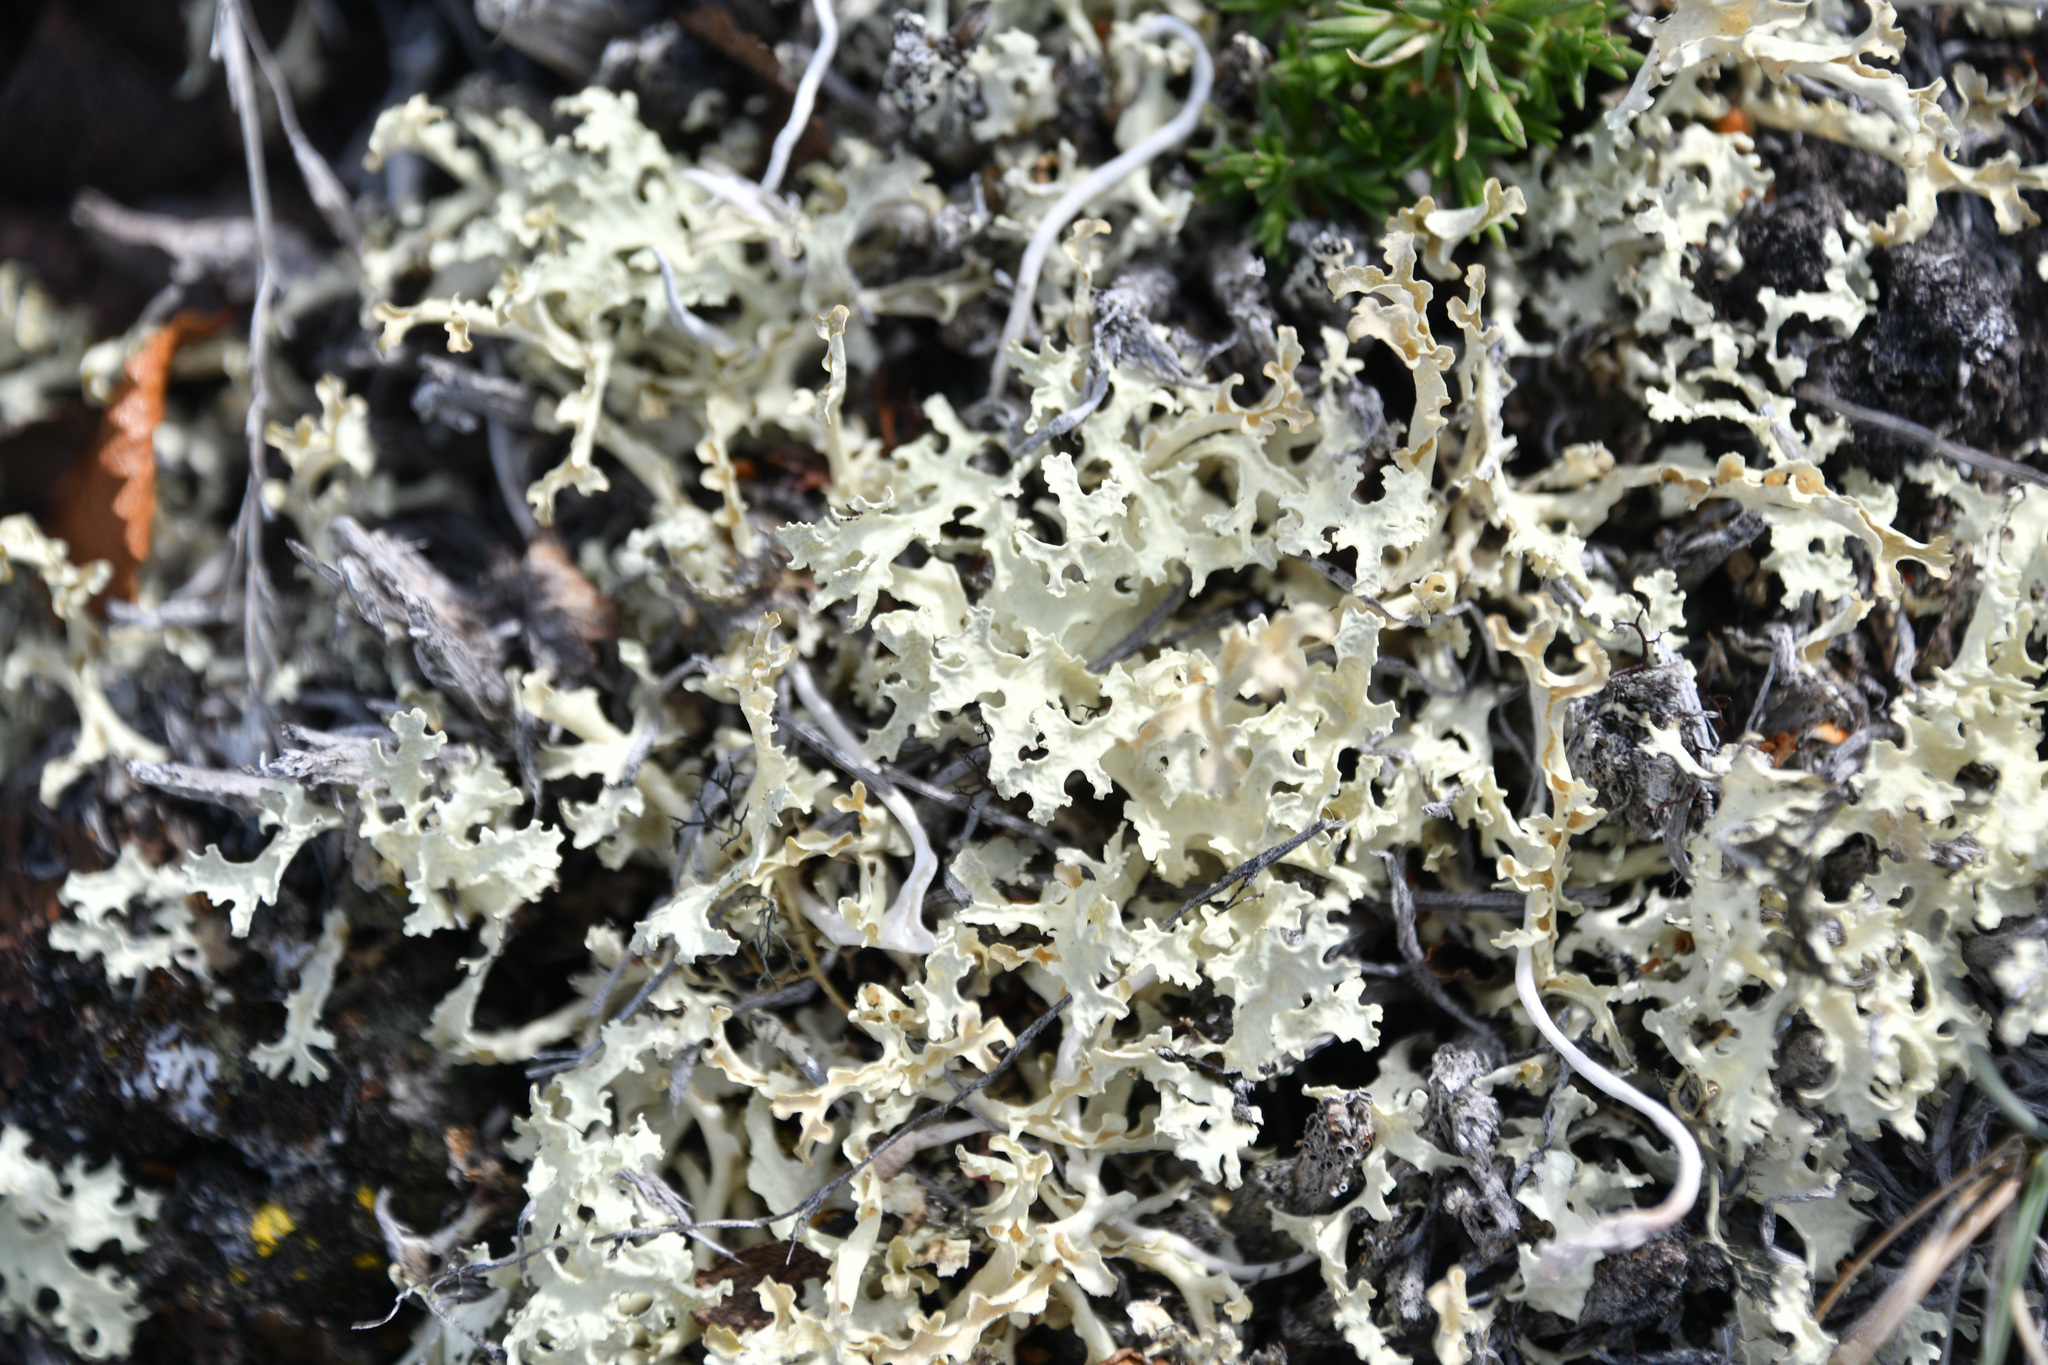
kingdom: Fungi
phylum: Ascomycota
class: Lecanoromycetes
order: Lecanorales
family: Parmeliaceae
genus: Nephromopsis
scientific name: Nephromopsis nivalis
